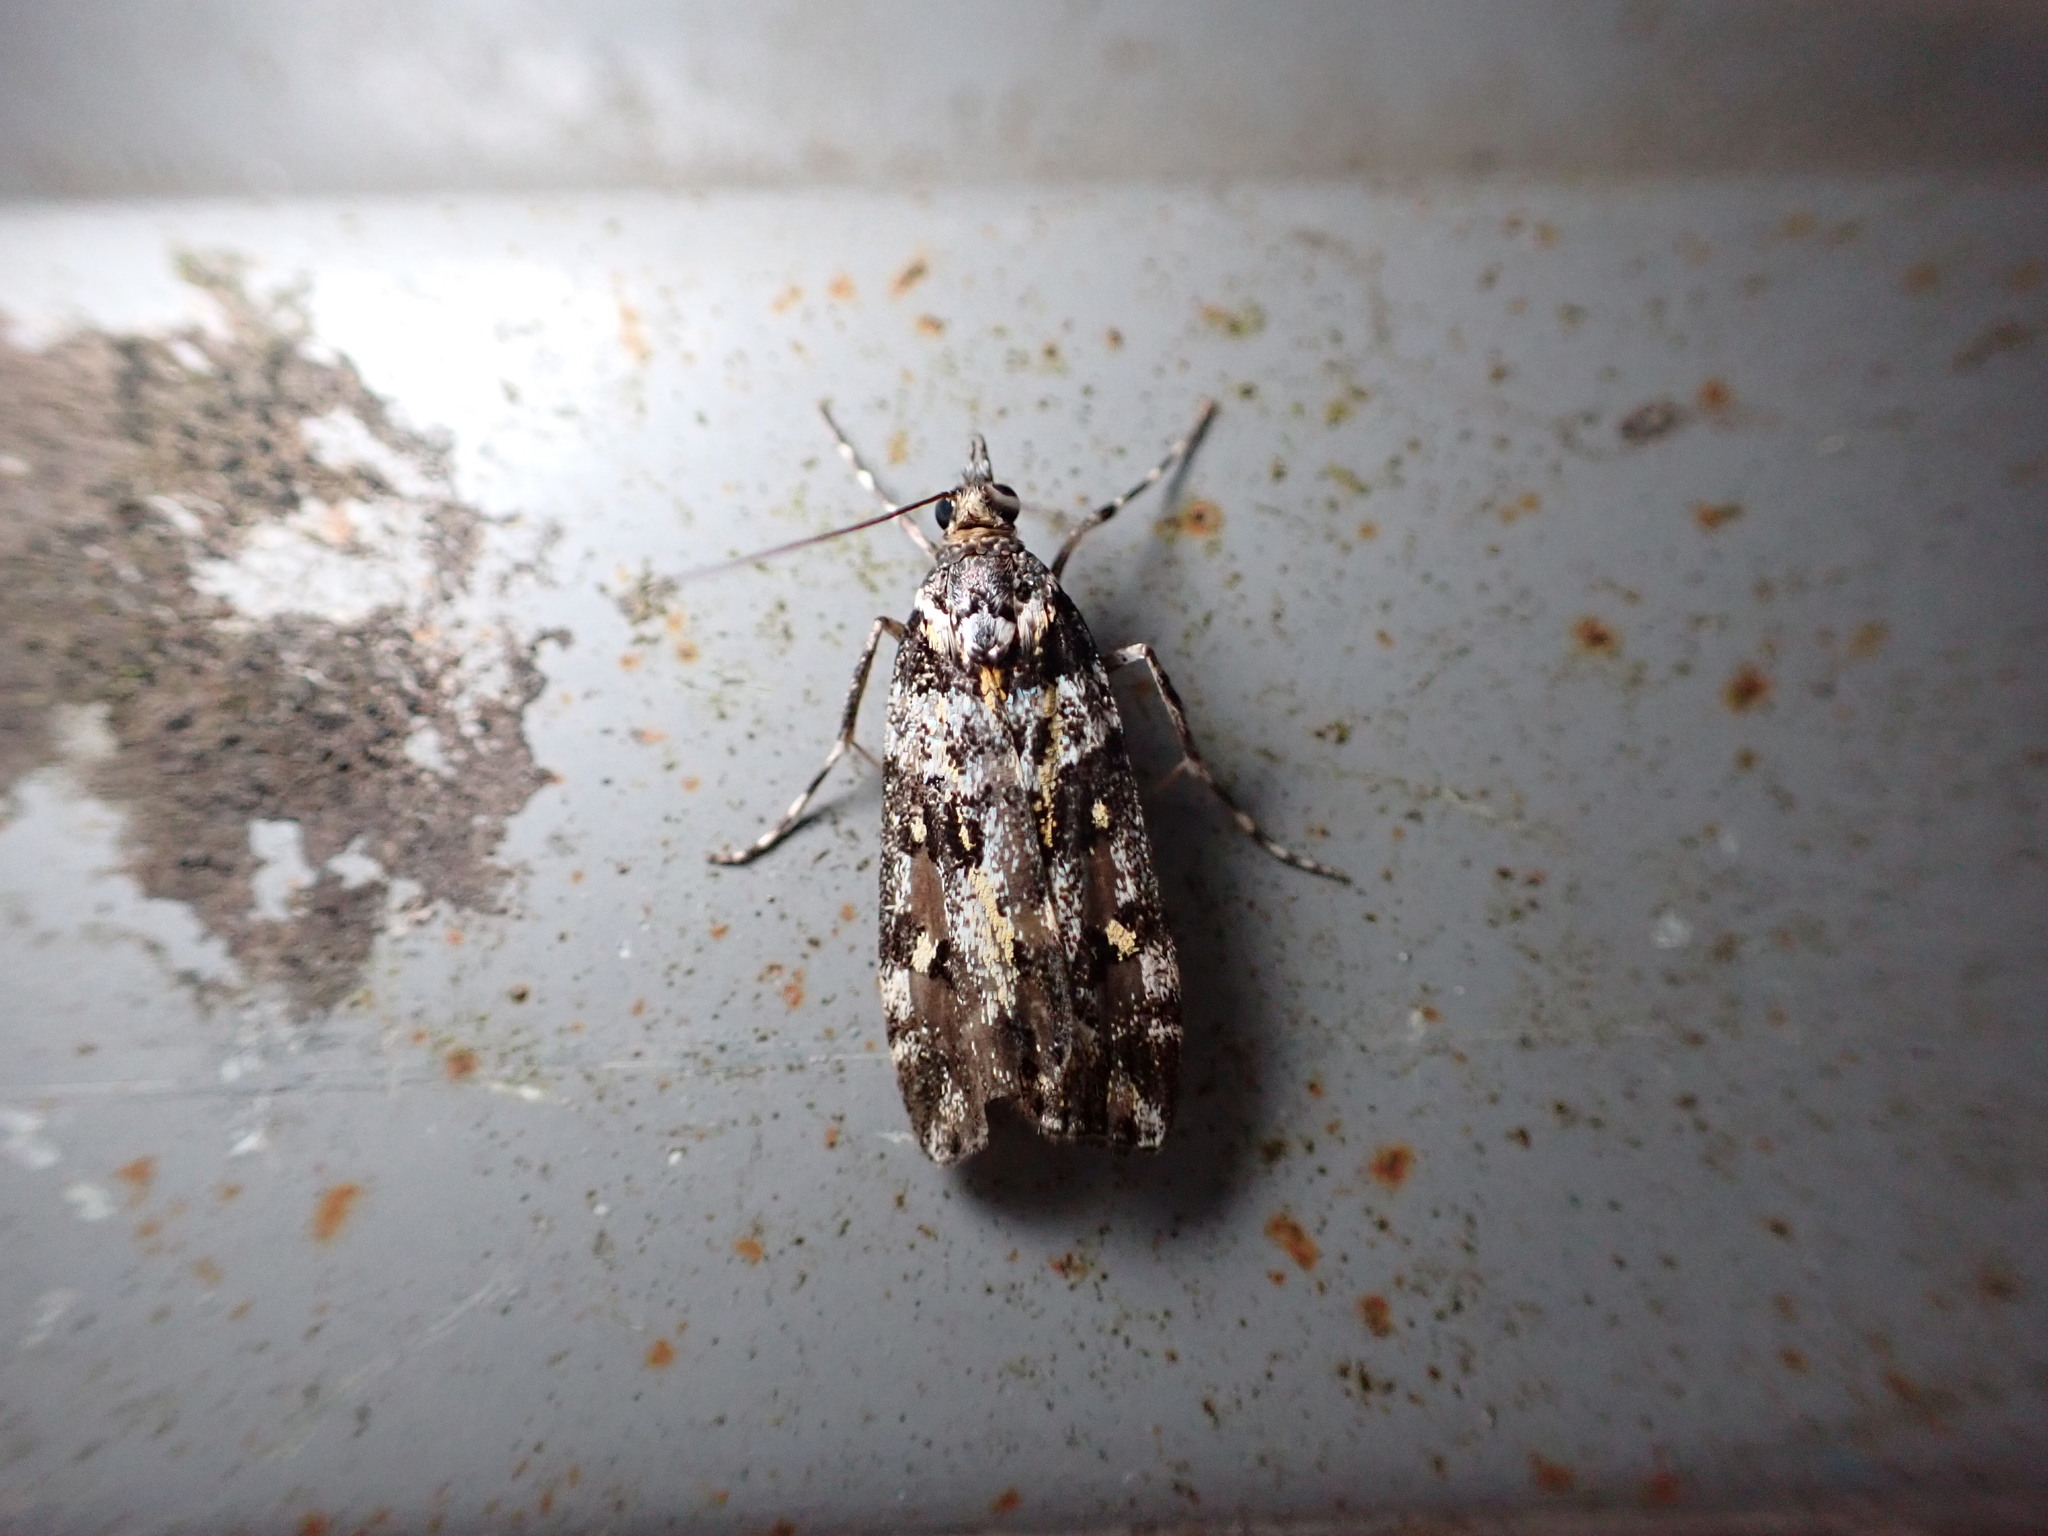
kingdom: Animalia
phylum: Arthropoda
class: Insecta
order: Lepidoptera
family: Crambidae
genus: Eudonia
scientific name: Eudonia diphtheralis
